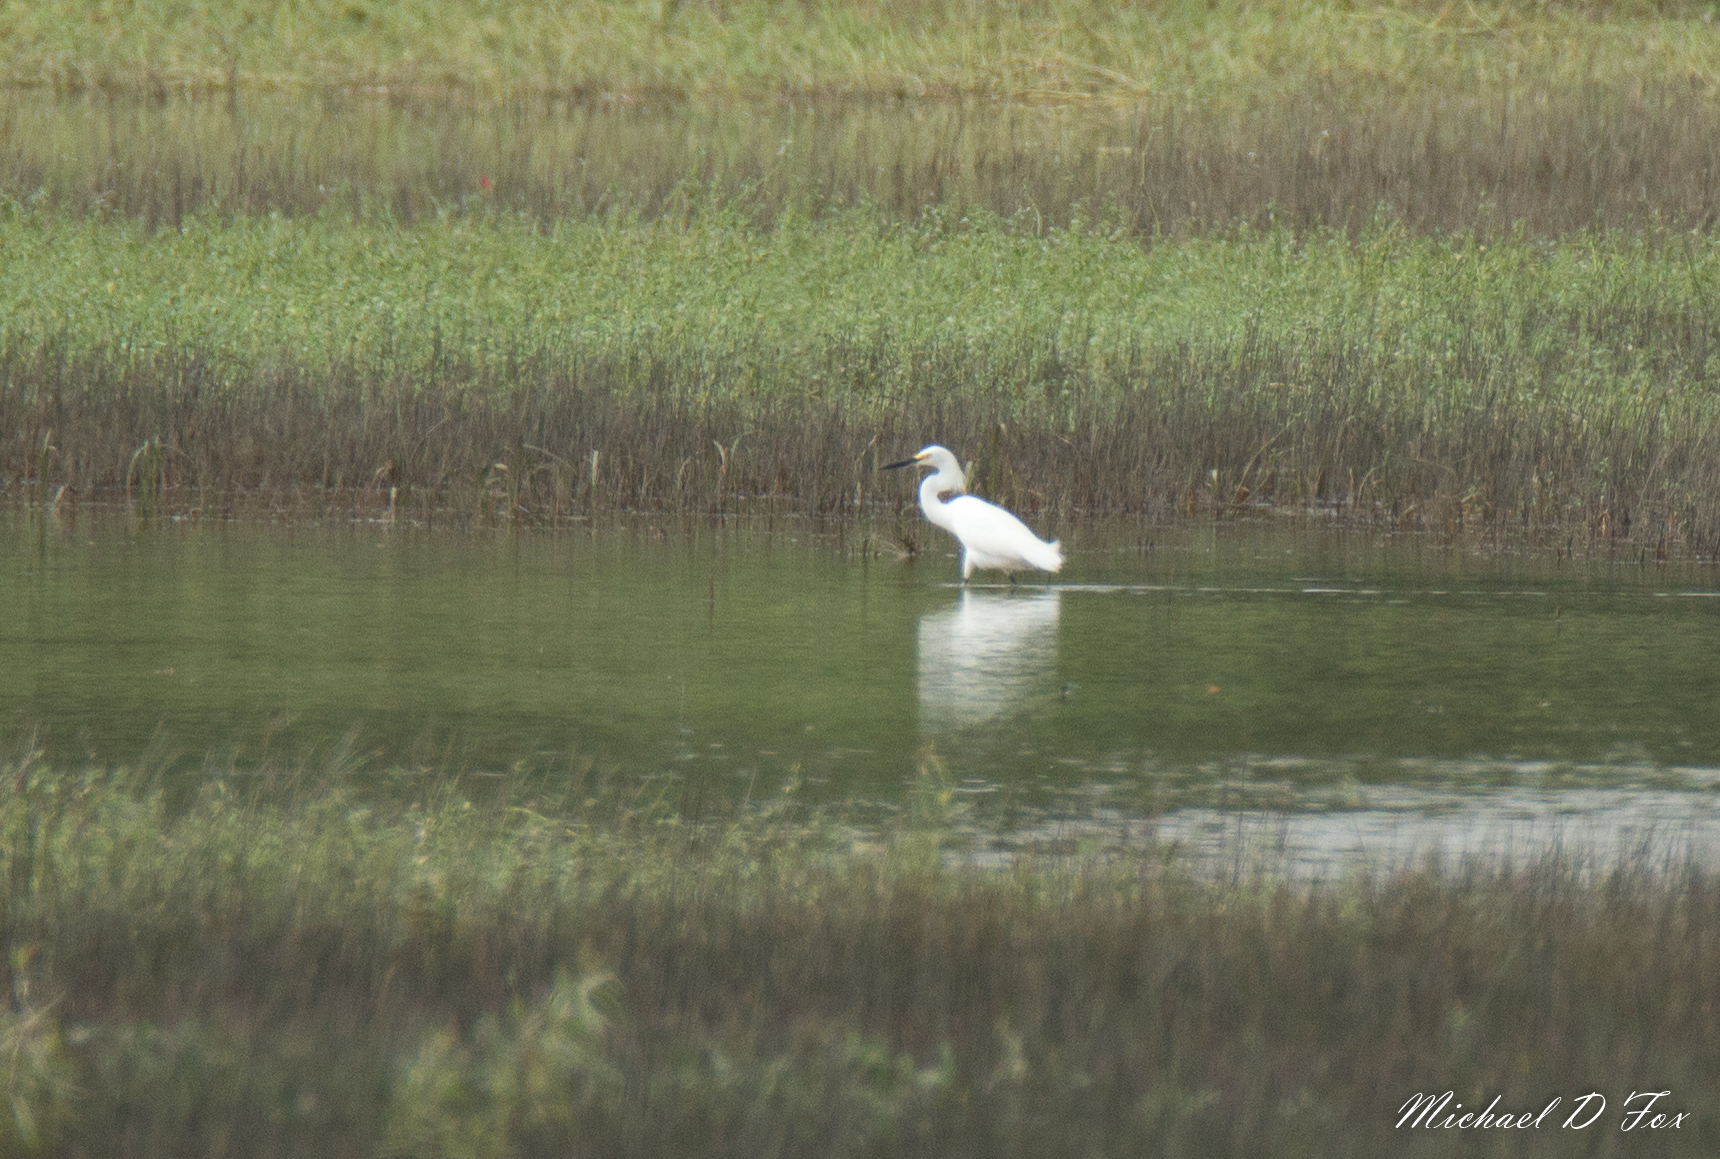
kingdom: Animalia
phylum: Chordata
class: Aves
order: Pelecaniformes
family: Ardeidae
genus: Egretta
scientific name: Egretta thula
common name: Snowy egret
